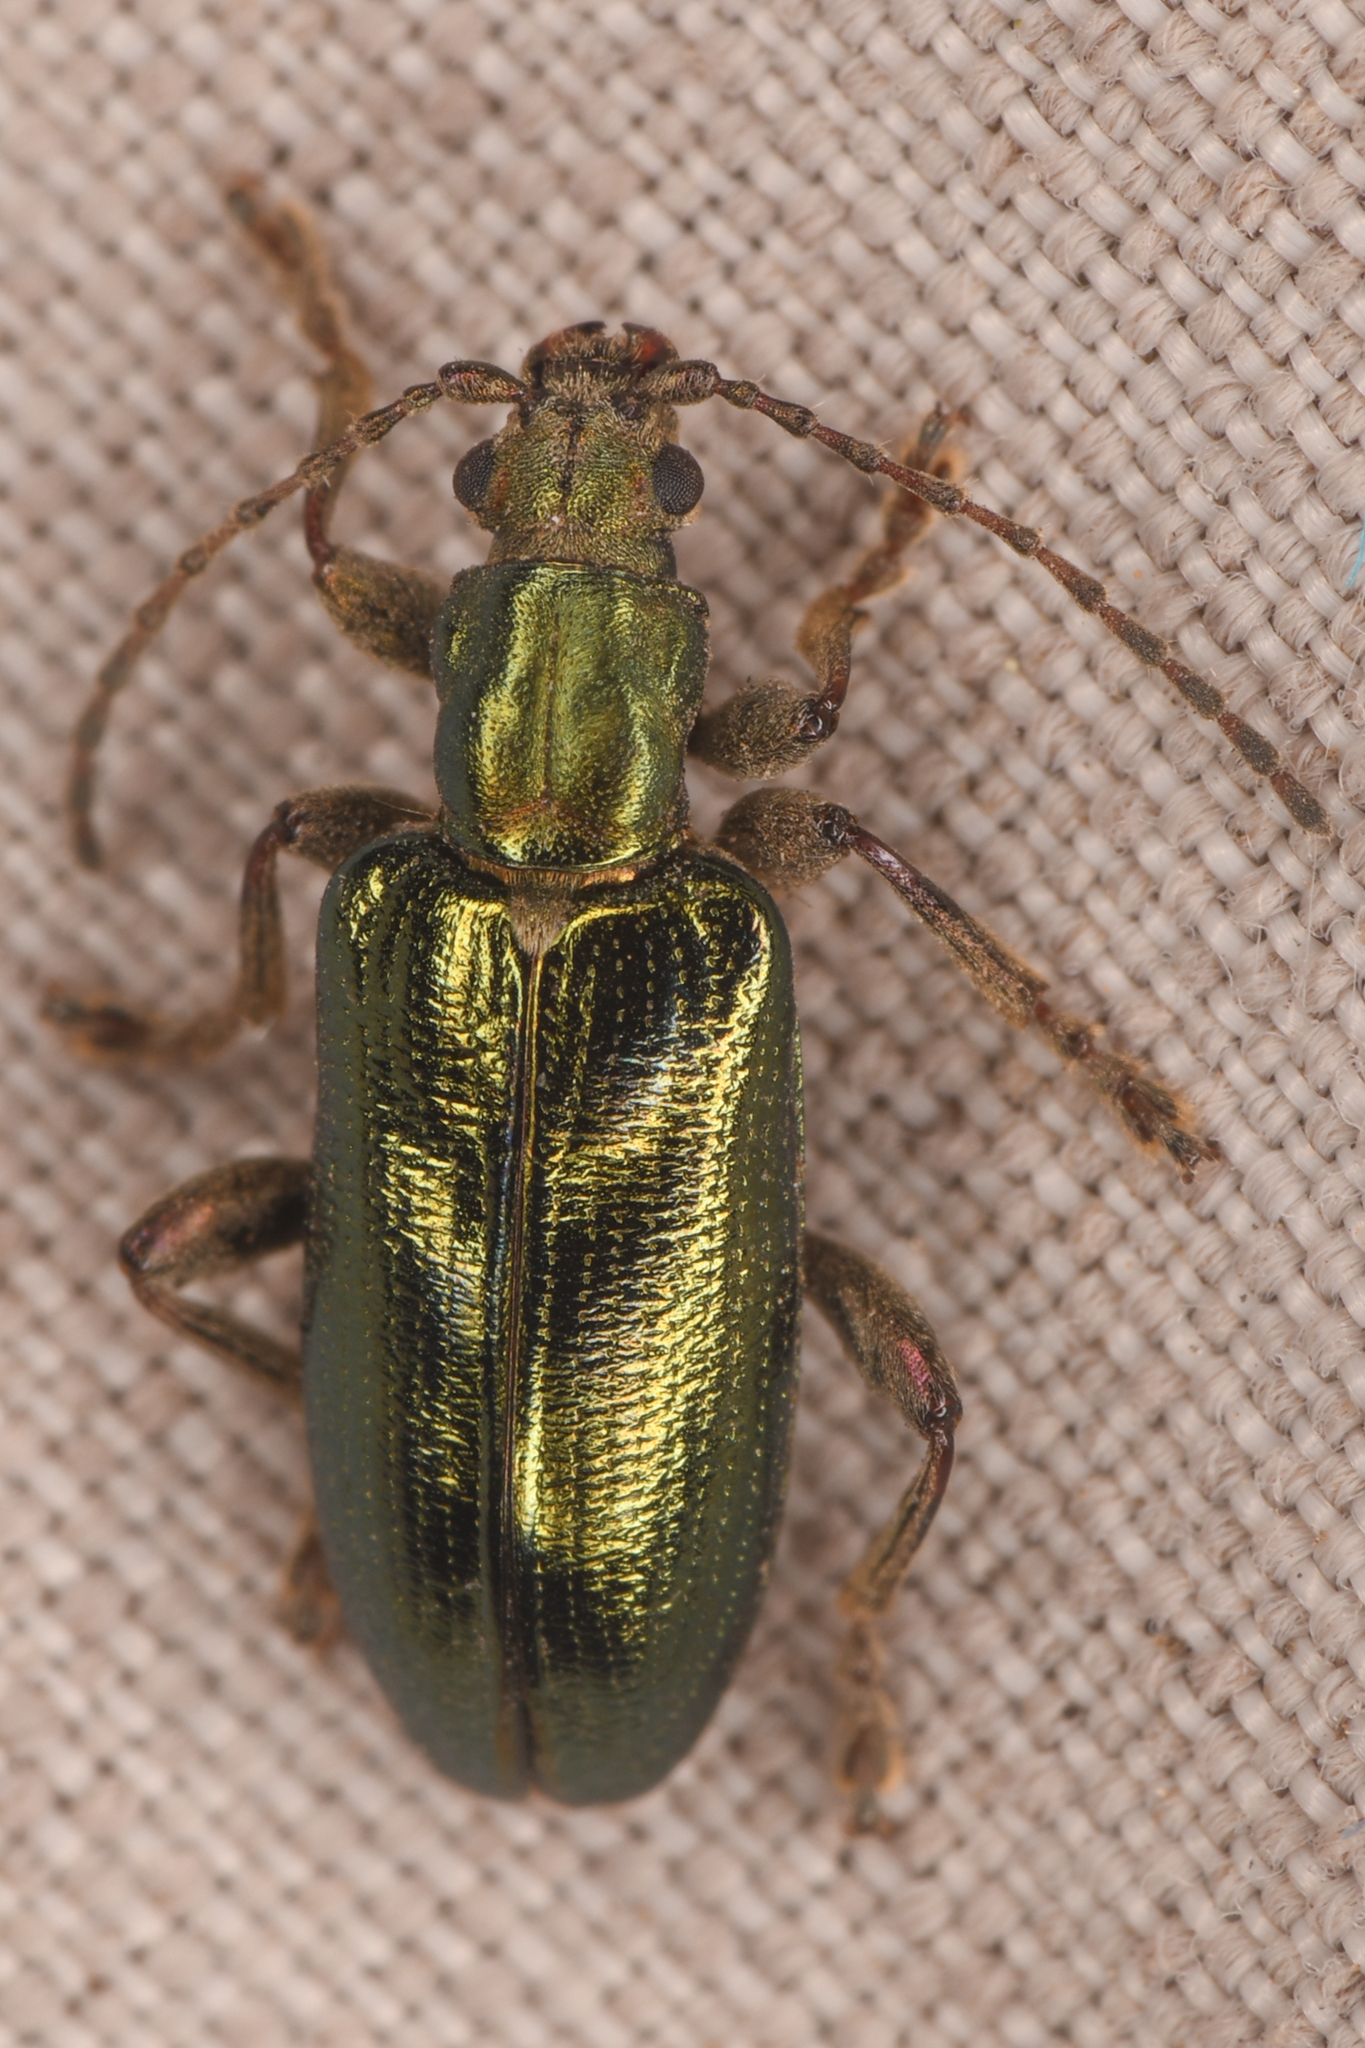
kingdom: Animalia
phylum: Arthropoda
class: Insecta
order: Coleoptera
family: Chrysomelidae
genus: Plateumaris
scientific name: Plateumaris neomexicana
